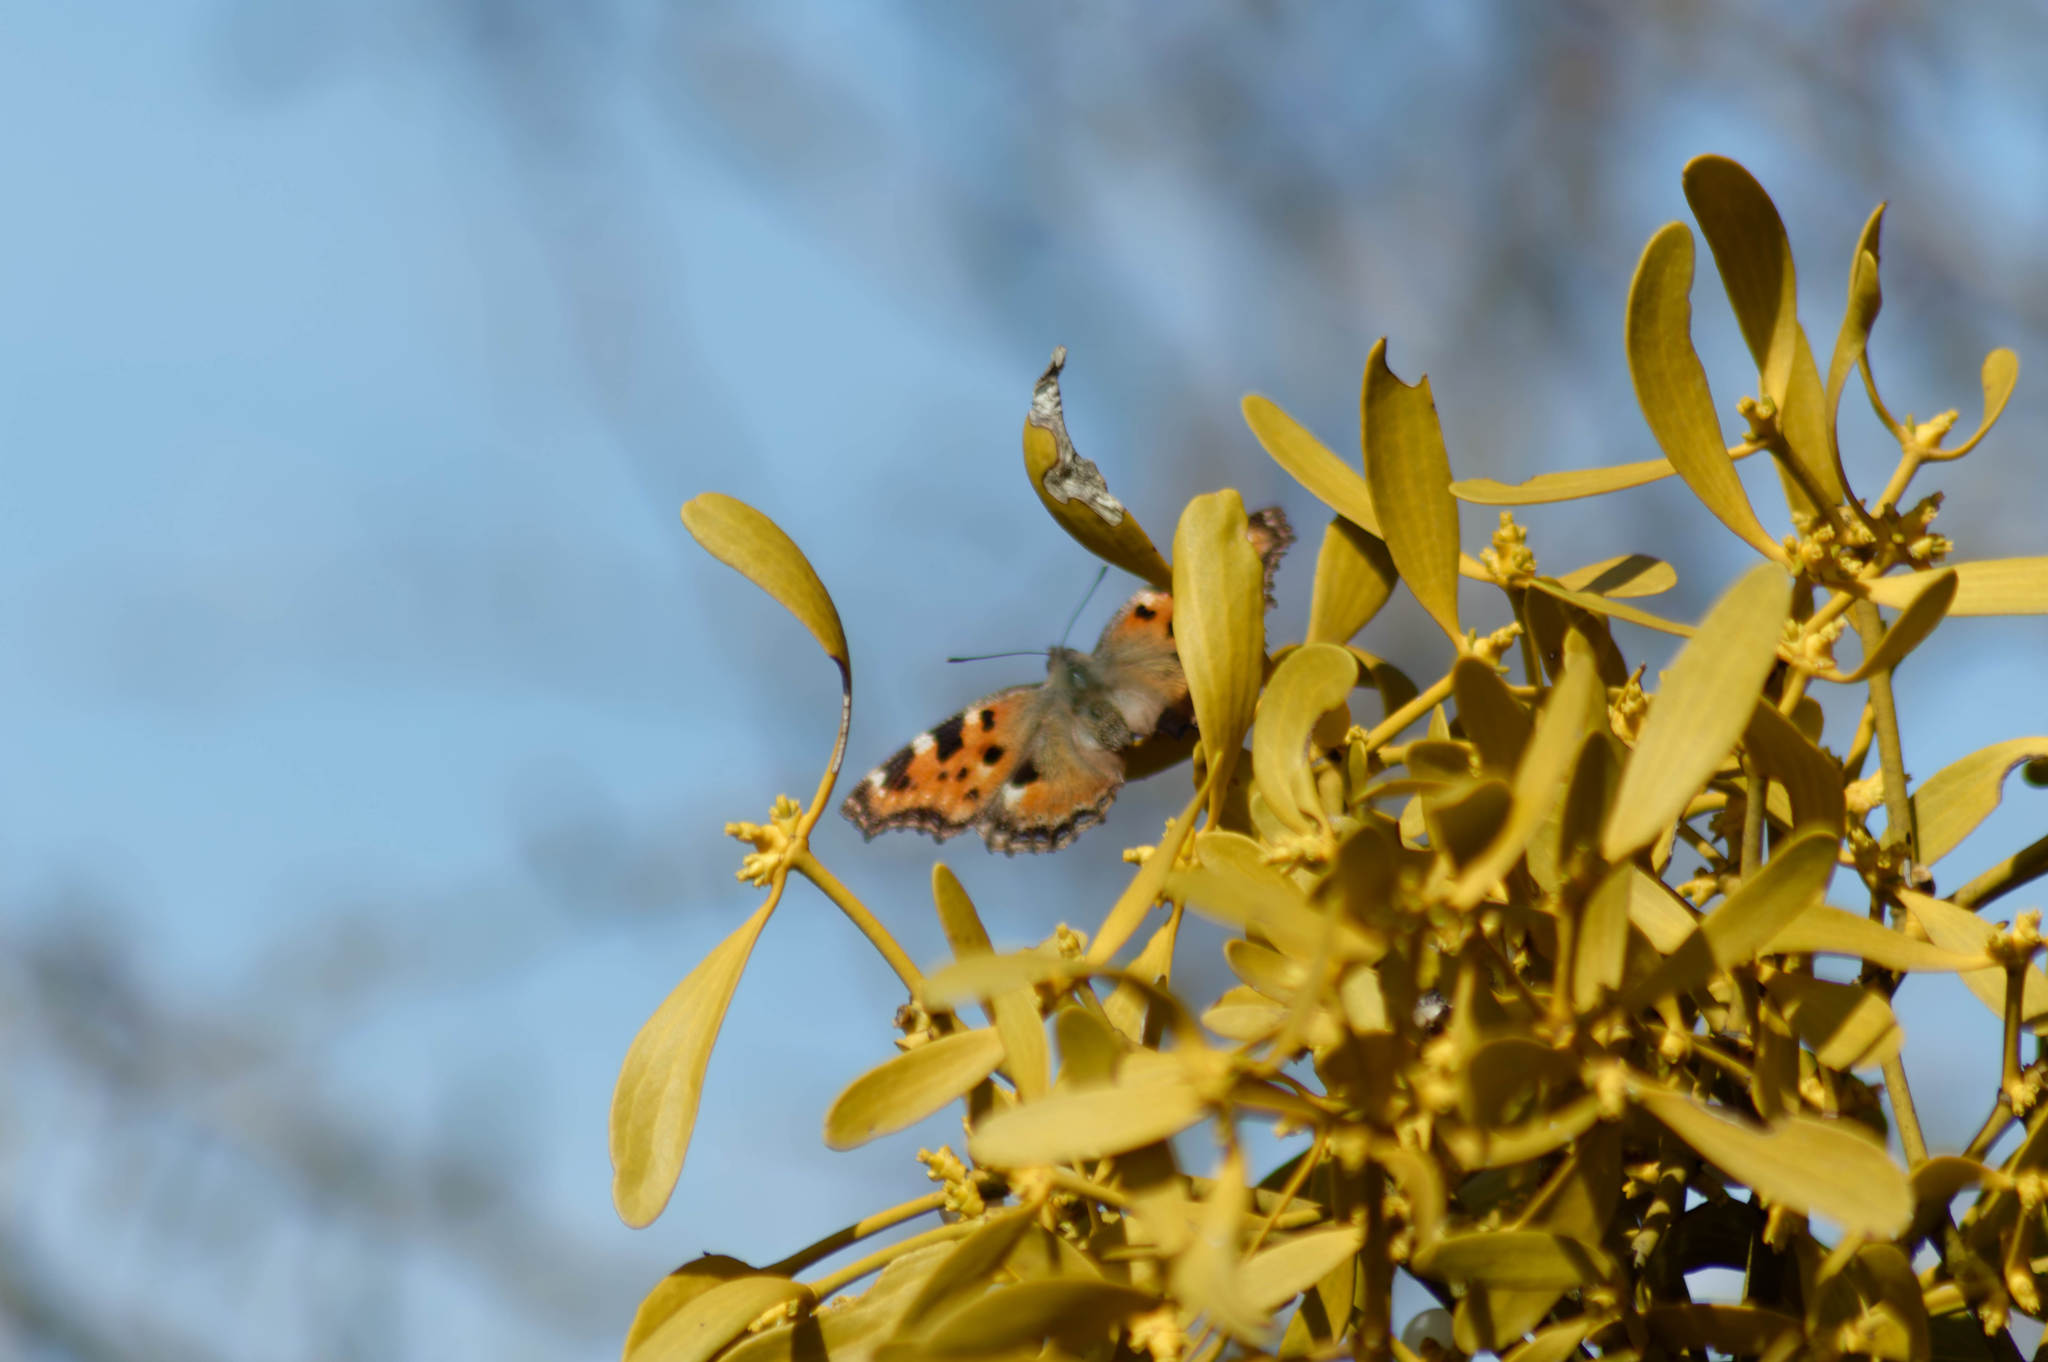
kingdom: Animalia
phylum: Arthropoda
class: Insecta
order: Lepidoptera
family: Nymphalidae
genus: Nymphalis
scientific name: Nymphalis polychloros
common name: Large tortoiseshell
